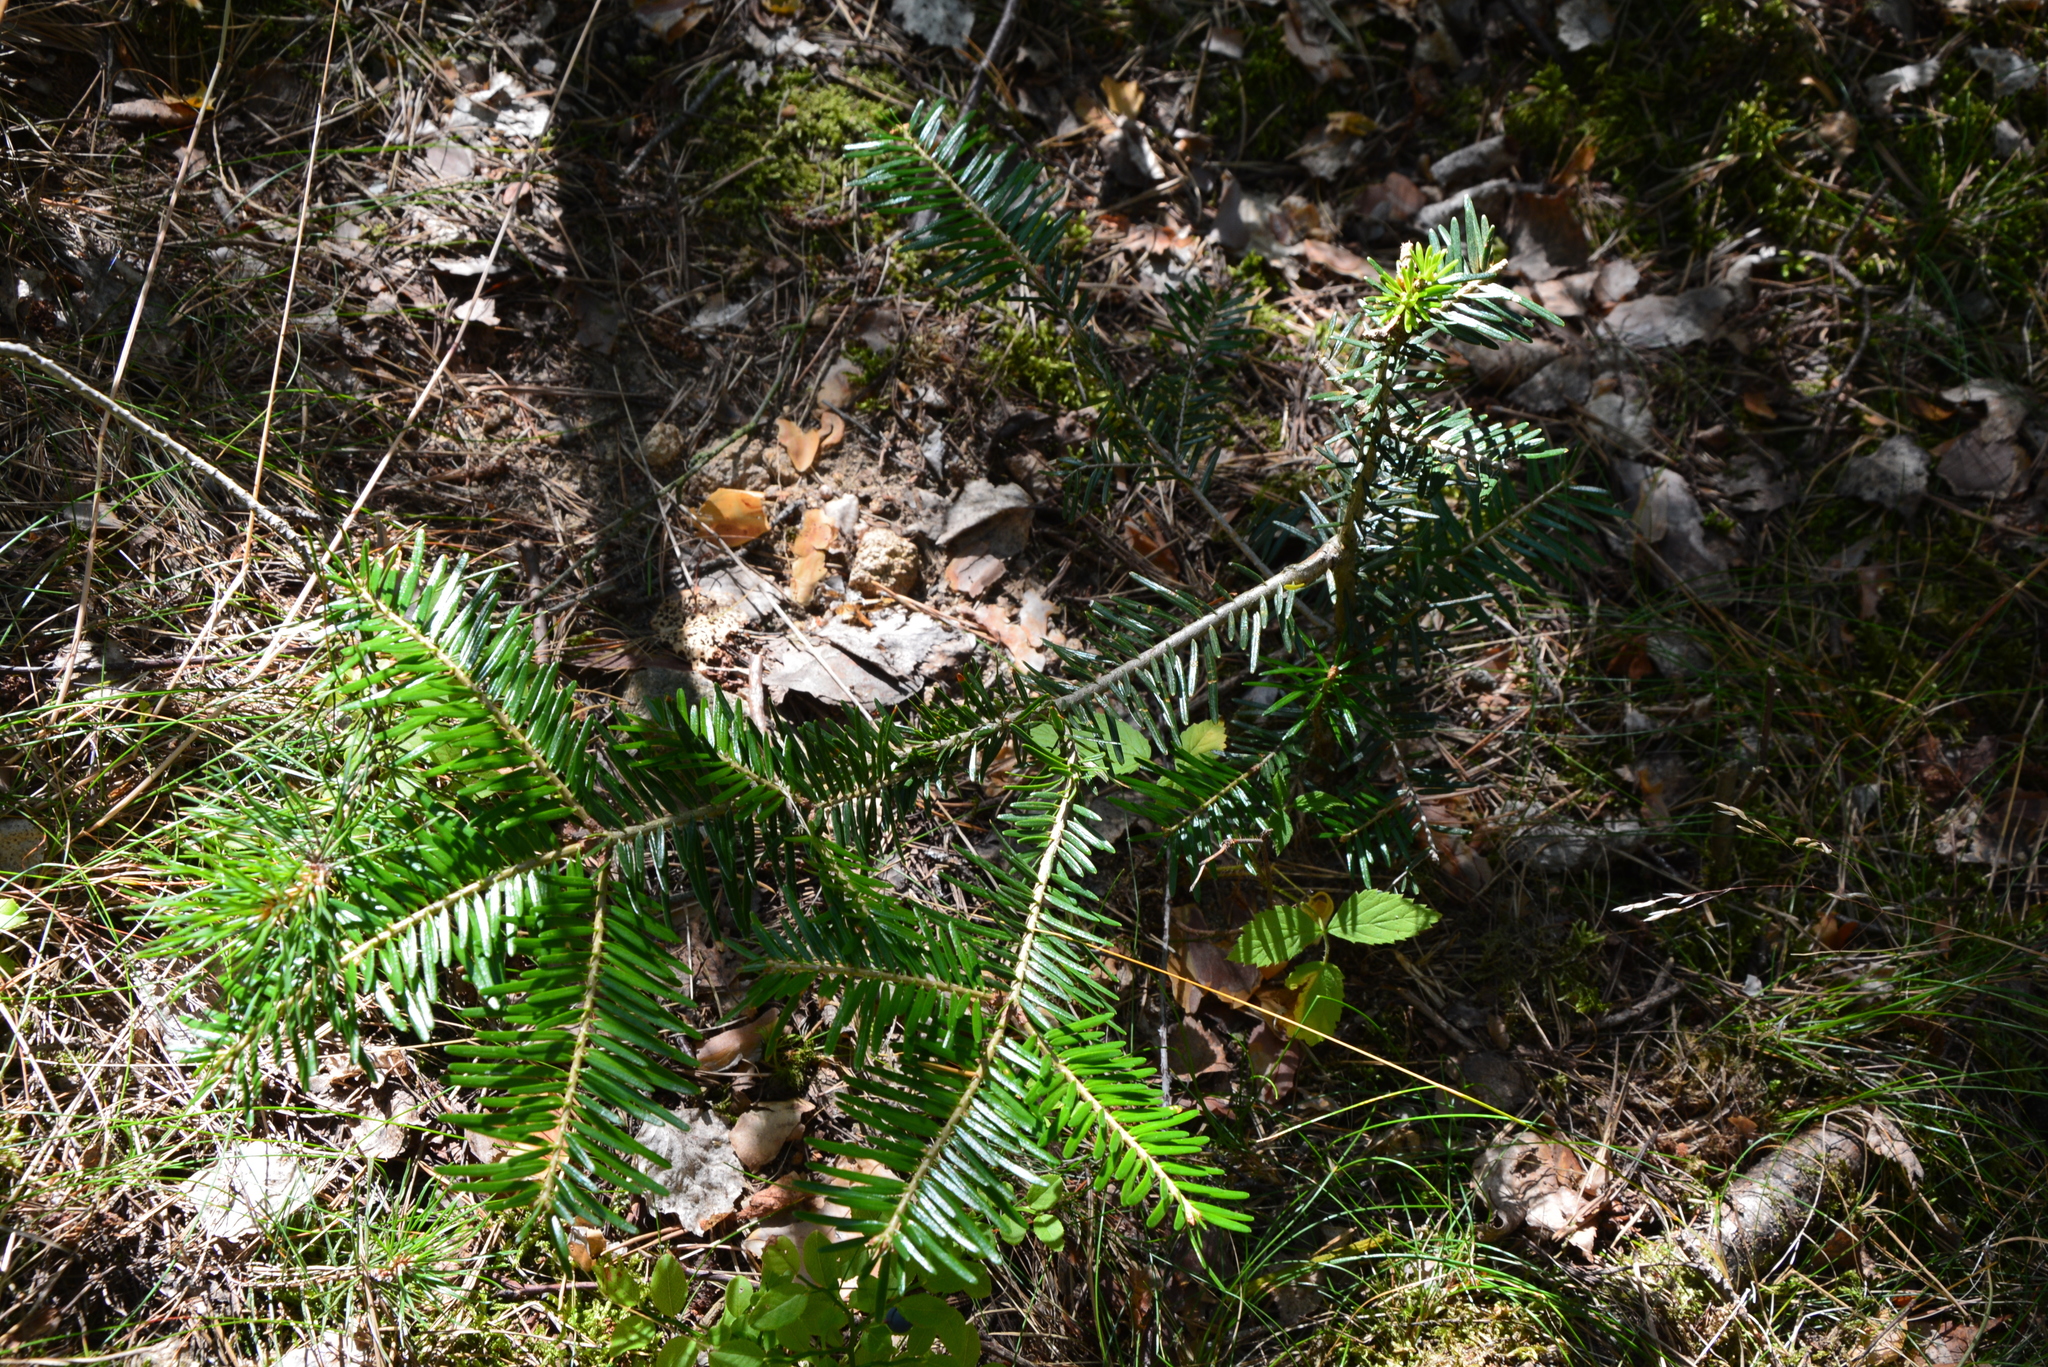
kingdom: Plantae
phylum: Tracheophyta
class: Pinopsida
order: Pinales
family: Pinaceae
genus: Abies
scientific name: Abies alba
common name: Silver fir
